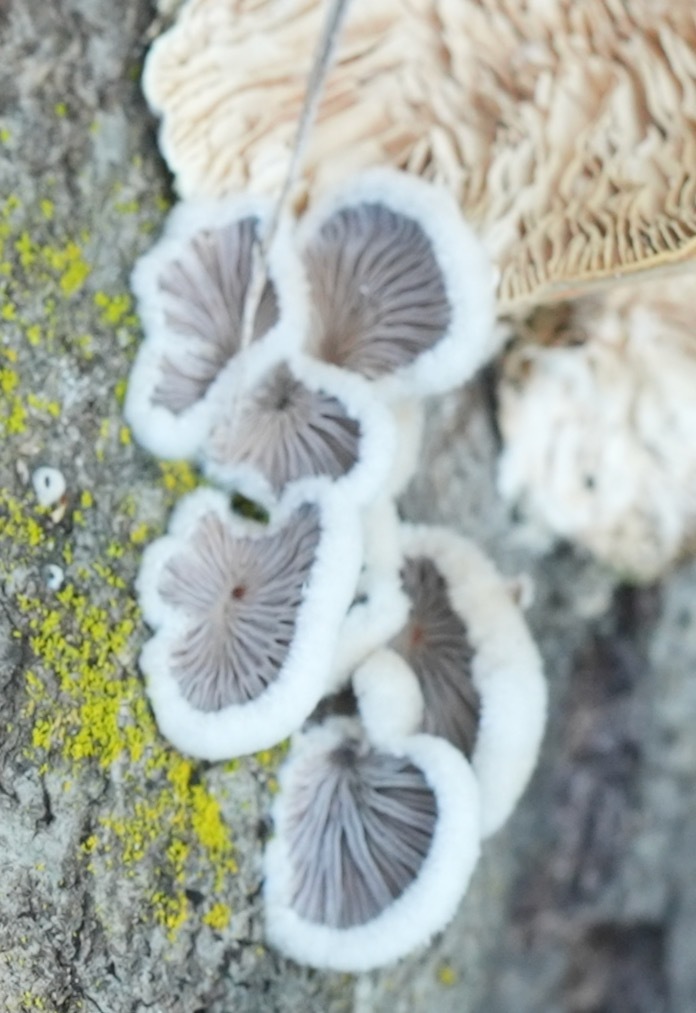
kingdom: Fungi
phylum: Basidiomycota
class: Agaricomycetes
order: Polyporales
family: Polyporaceae
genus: Lenzites
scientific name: Lenzites betulinus
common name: Birch mazegill
